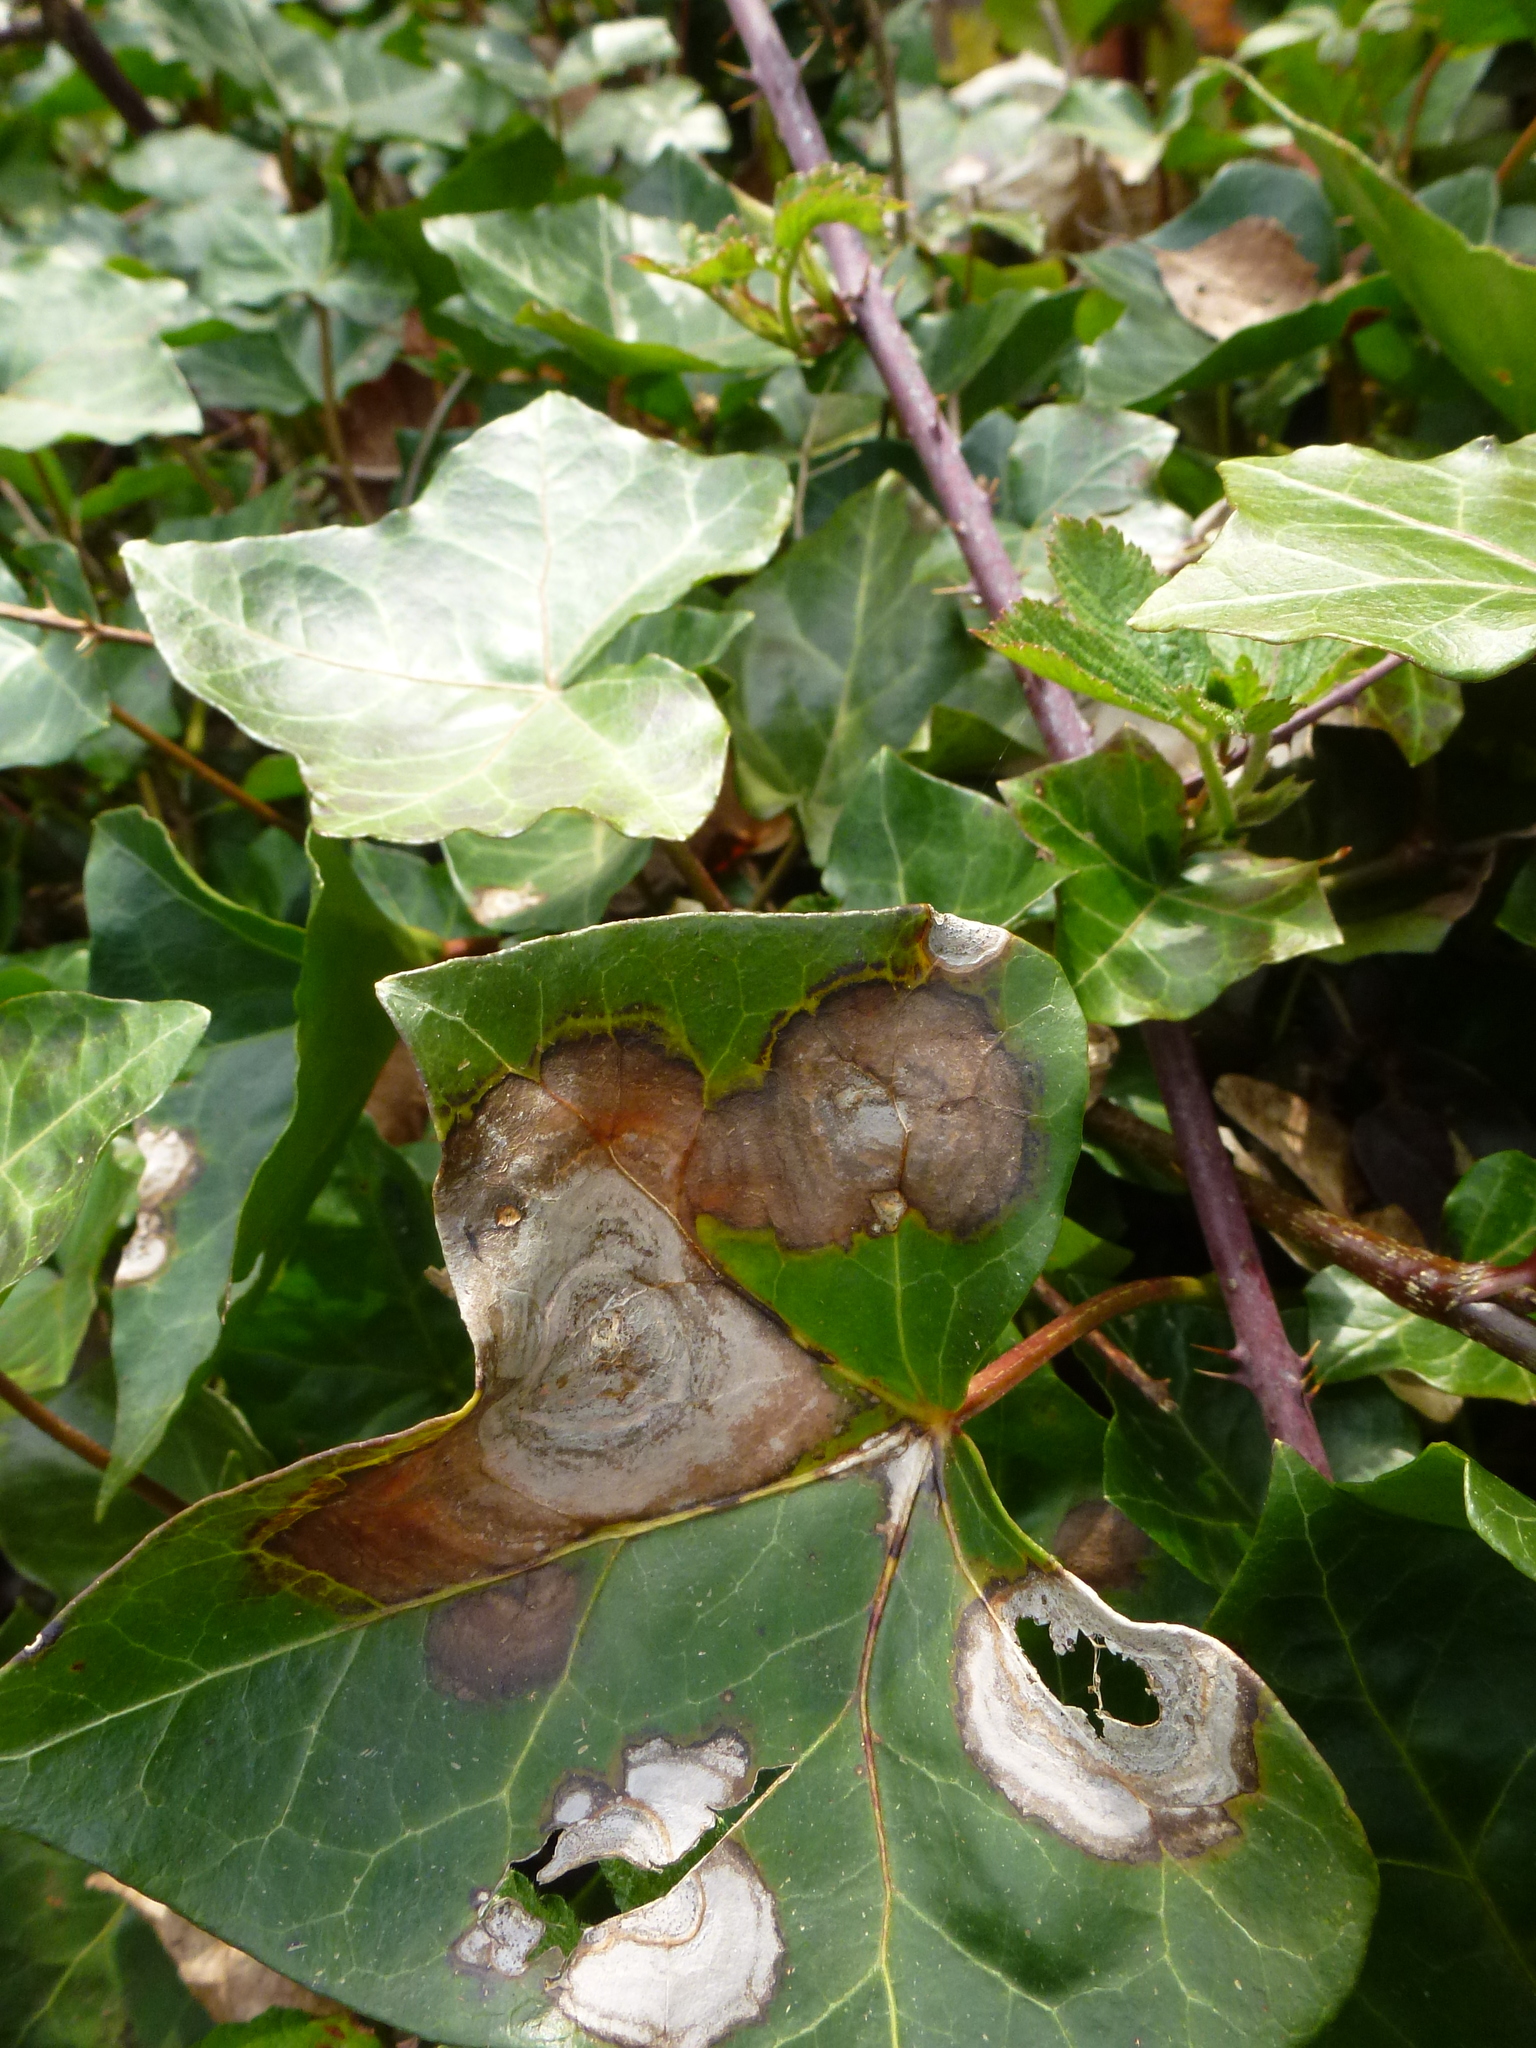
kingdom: Fungi
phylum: Ascomycota
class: Dothideomycetes
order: Pleosporales
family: Didymellaceae
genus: Boeremia
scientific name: Boeremia hedericola
